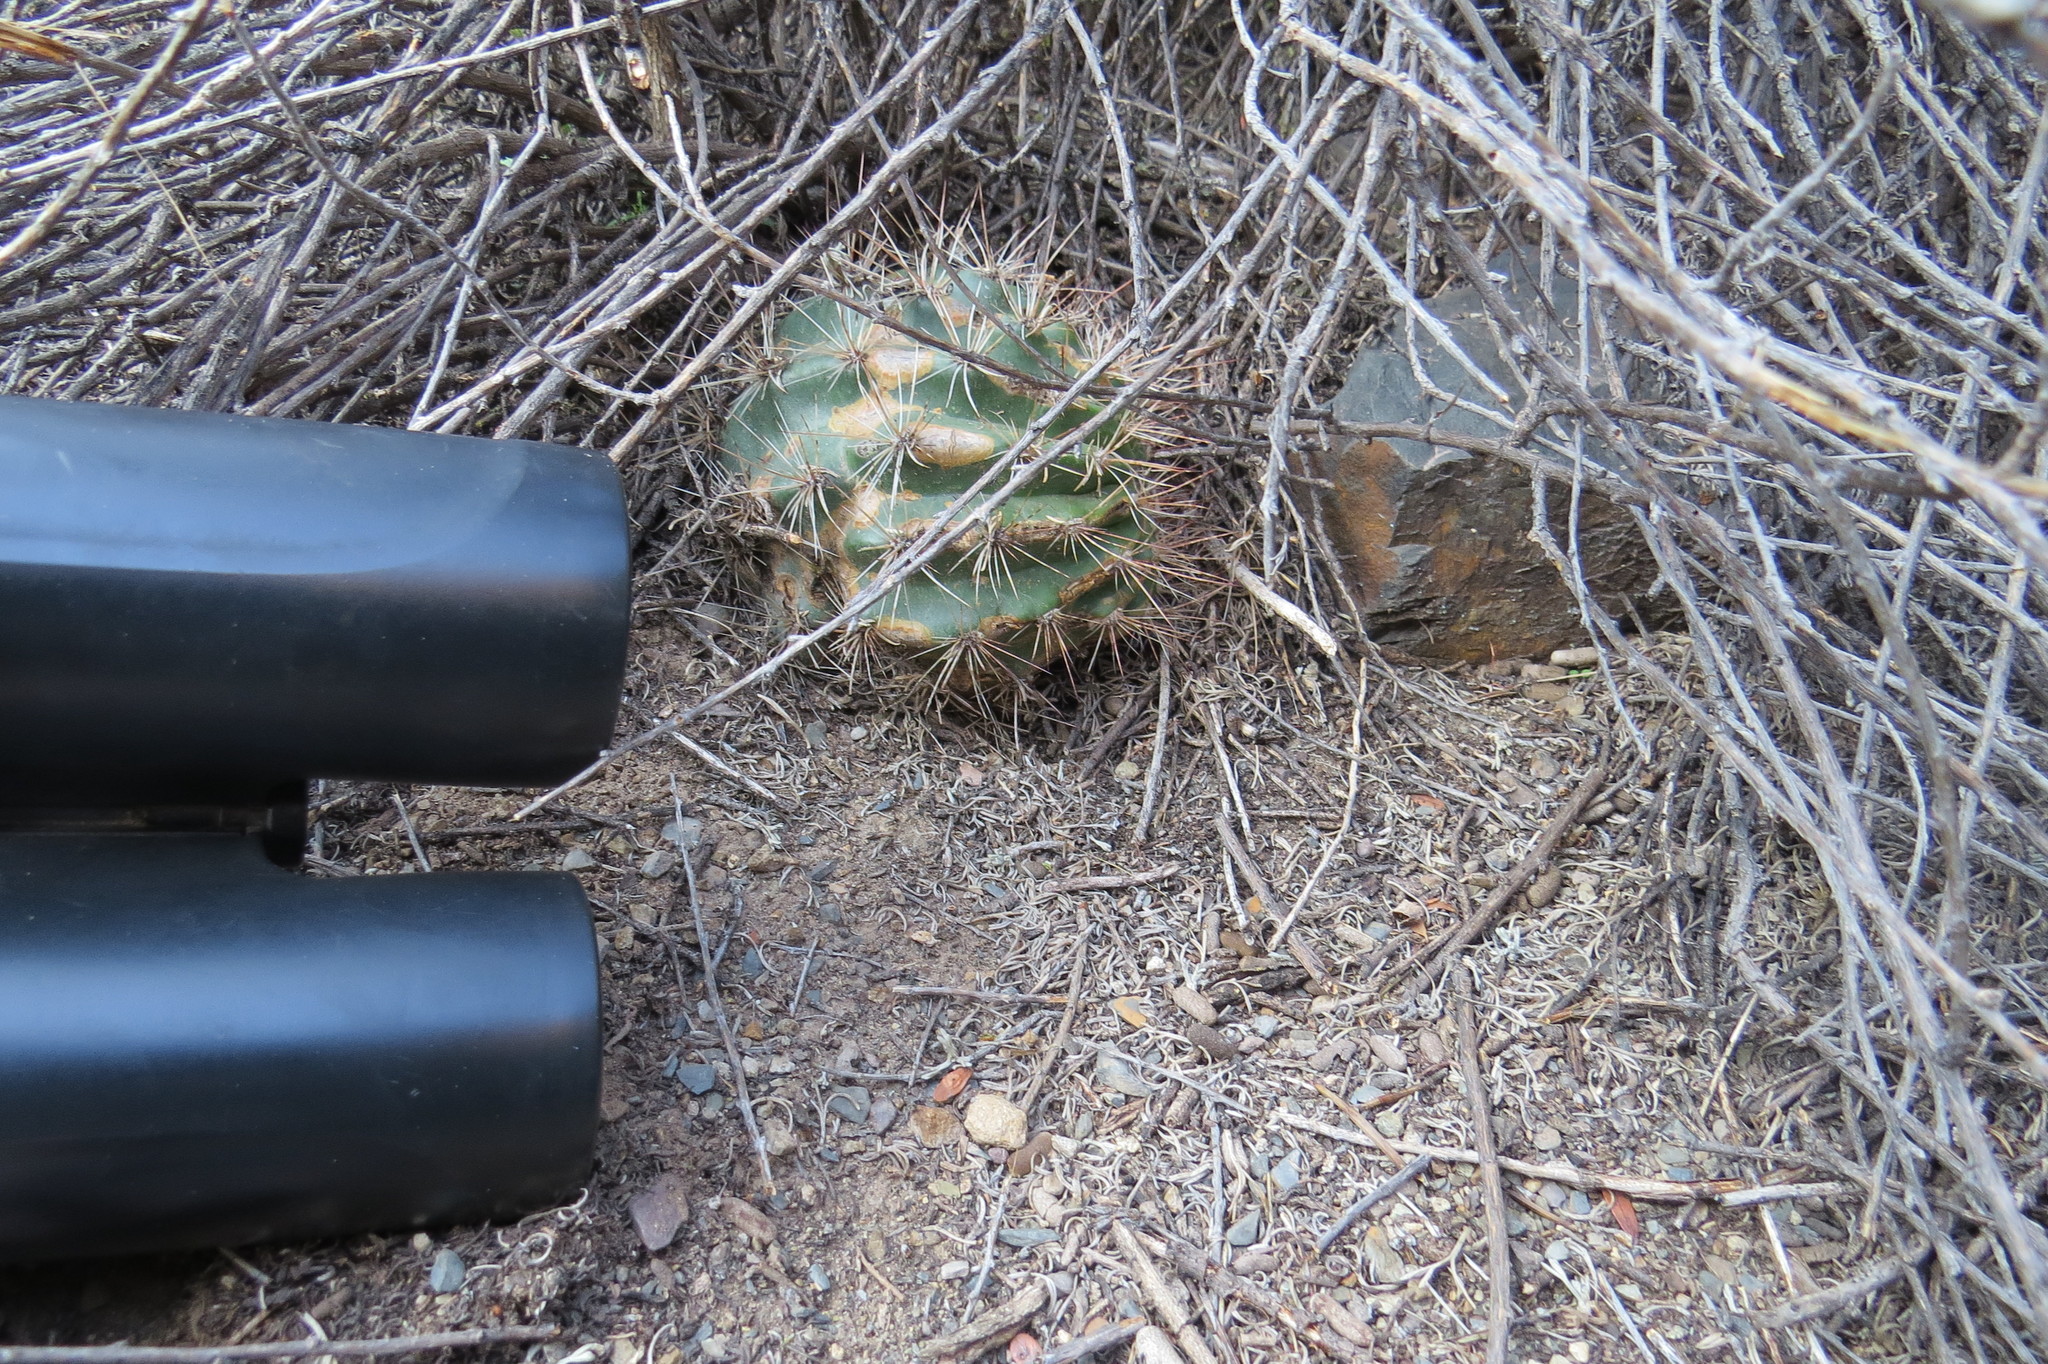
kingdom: Plantae
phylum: Tracheophyta
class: Magnoliopsida
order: Caryophyllales
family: Cactaceae
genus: Soehrensia
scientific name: Soehrensia formosa
